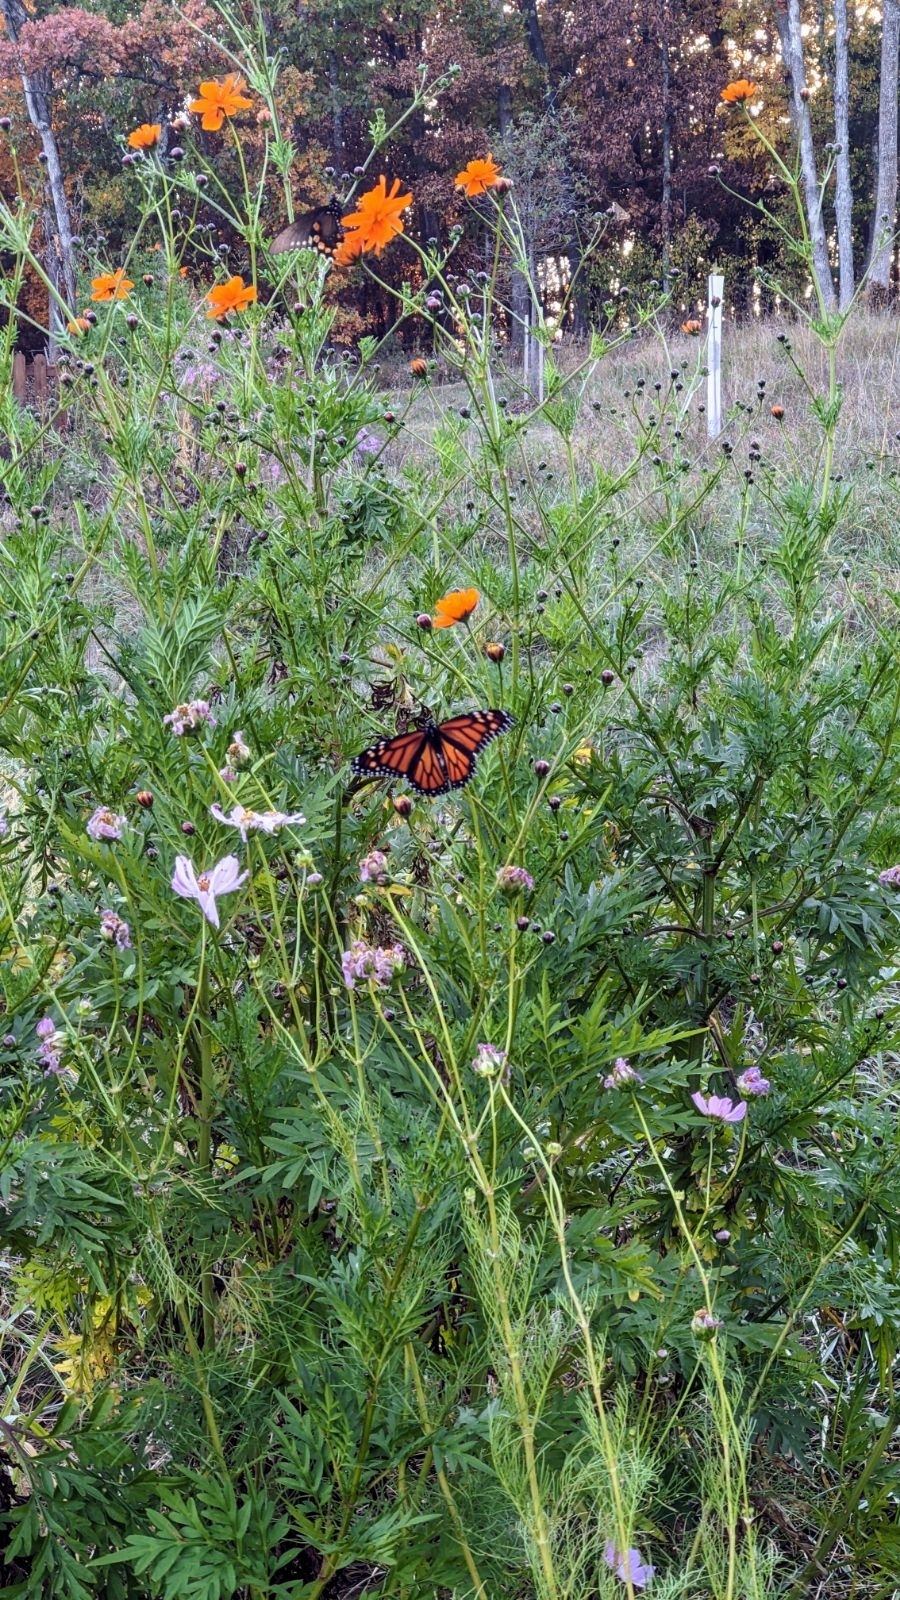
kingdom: Animalia
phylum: Arthropoda
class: Insecta
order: Lepidoptera
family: Nymphalidae
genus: Danaus
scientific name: Danaus plexippus
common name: Monarch
